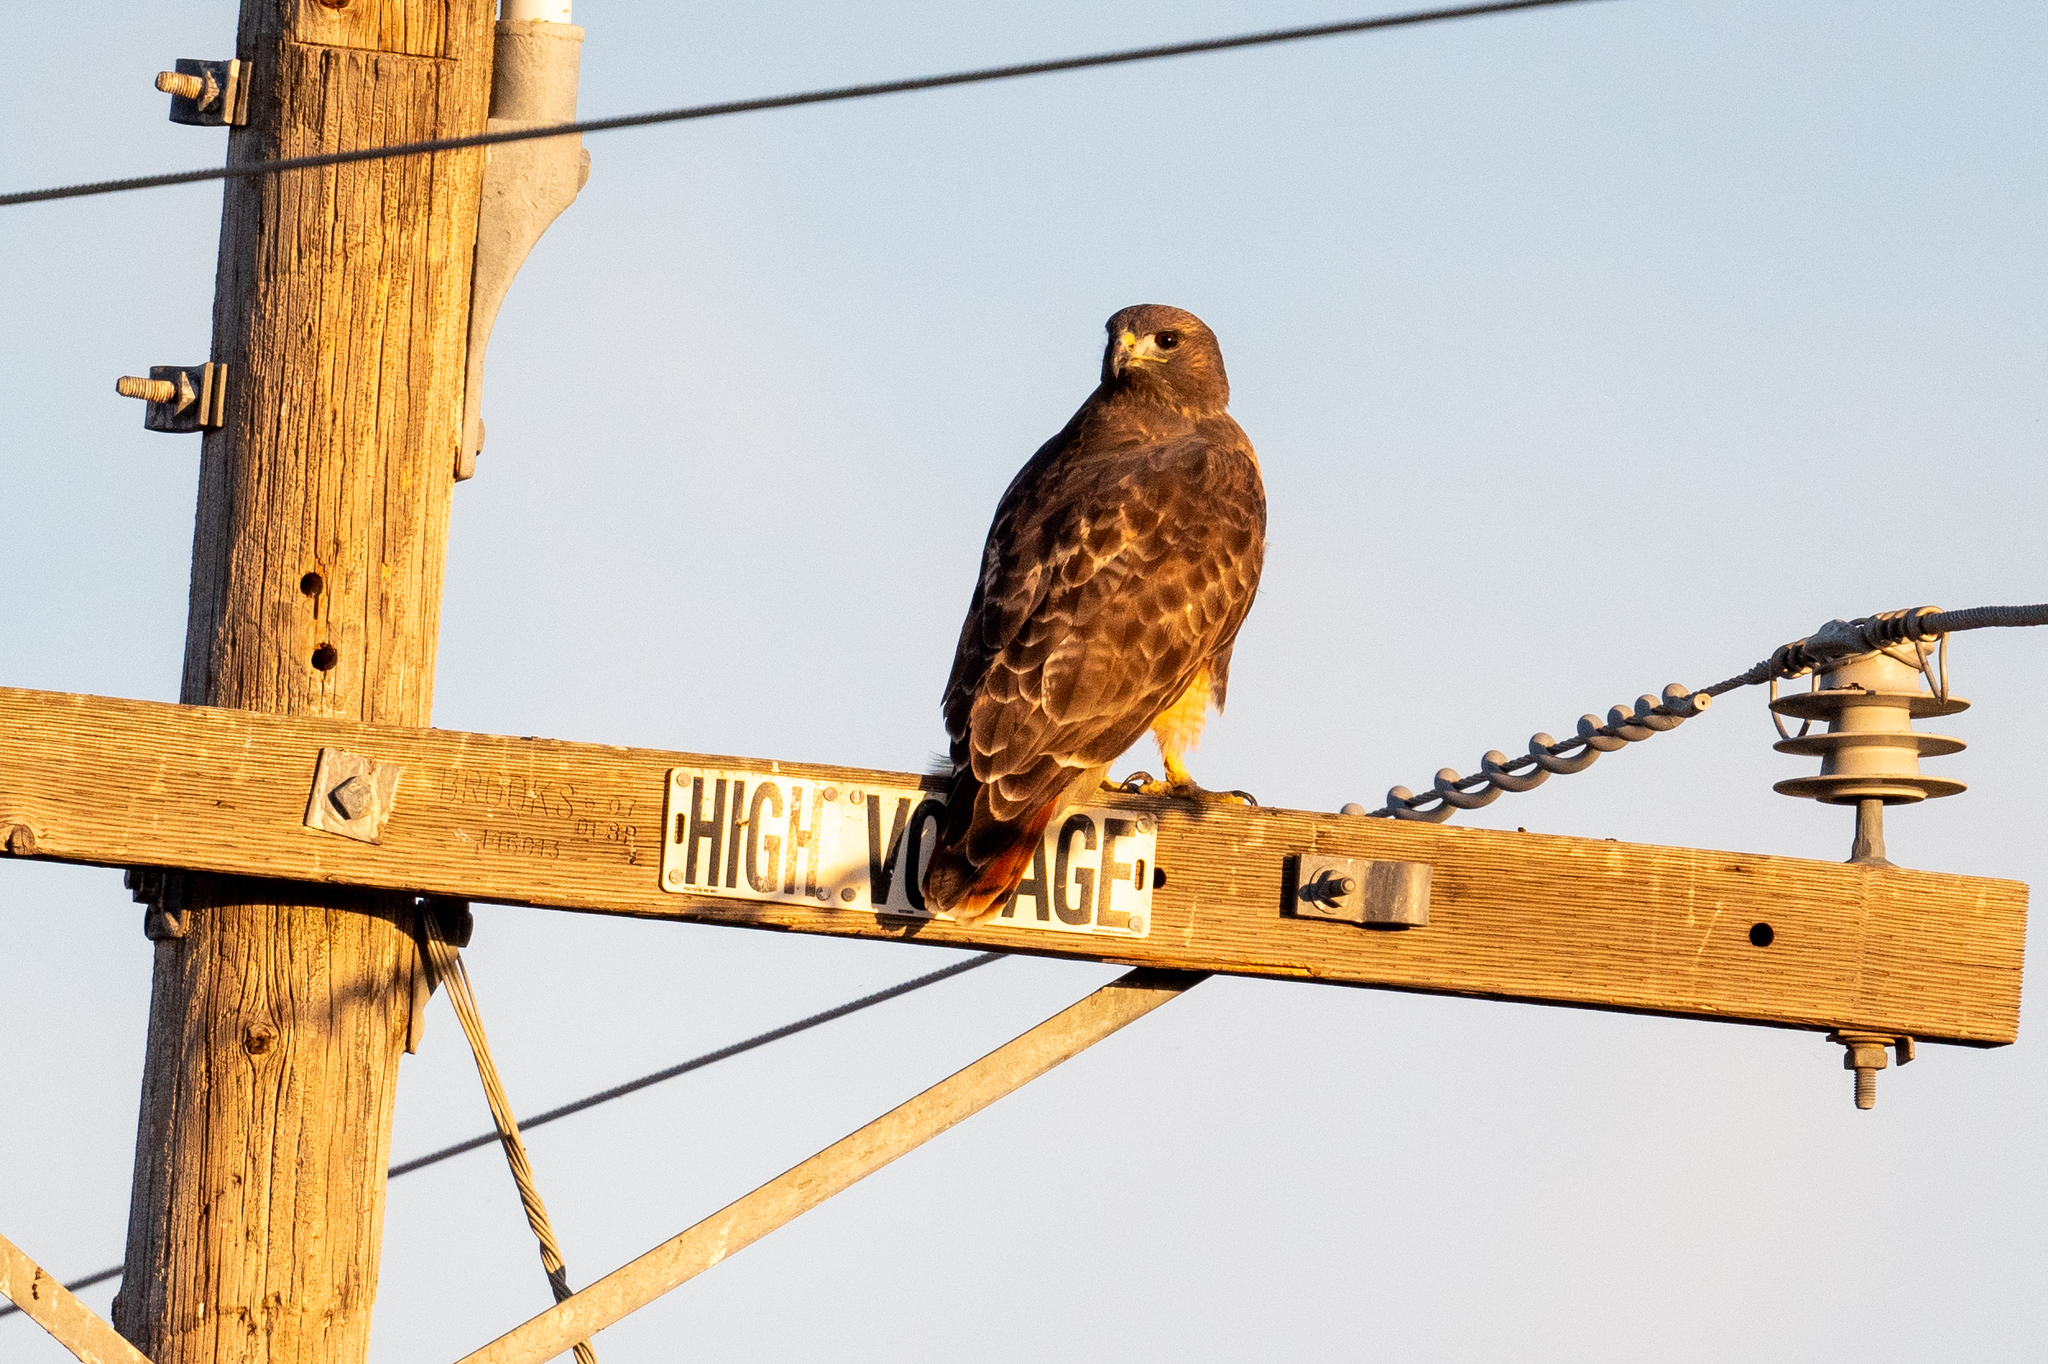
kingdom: Animalia
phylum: Chordata
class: Aves
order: Accipitriformes
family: Accipitridae
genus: Buteo
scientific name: Buteo jamaicensis
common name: Red-tailed hawk
